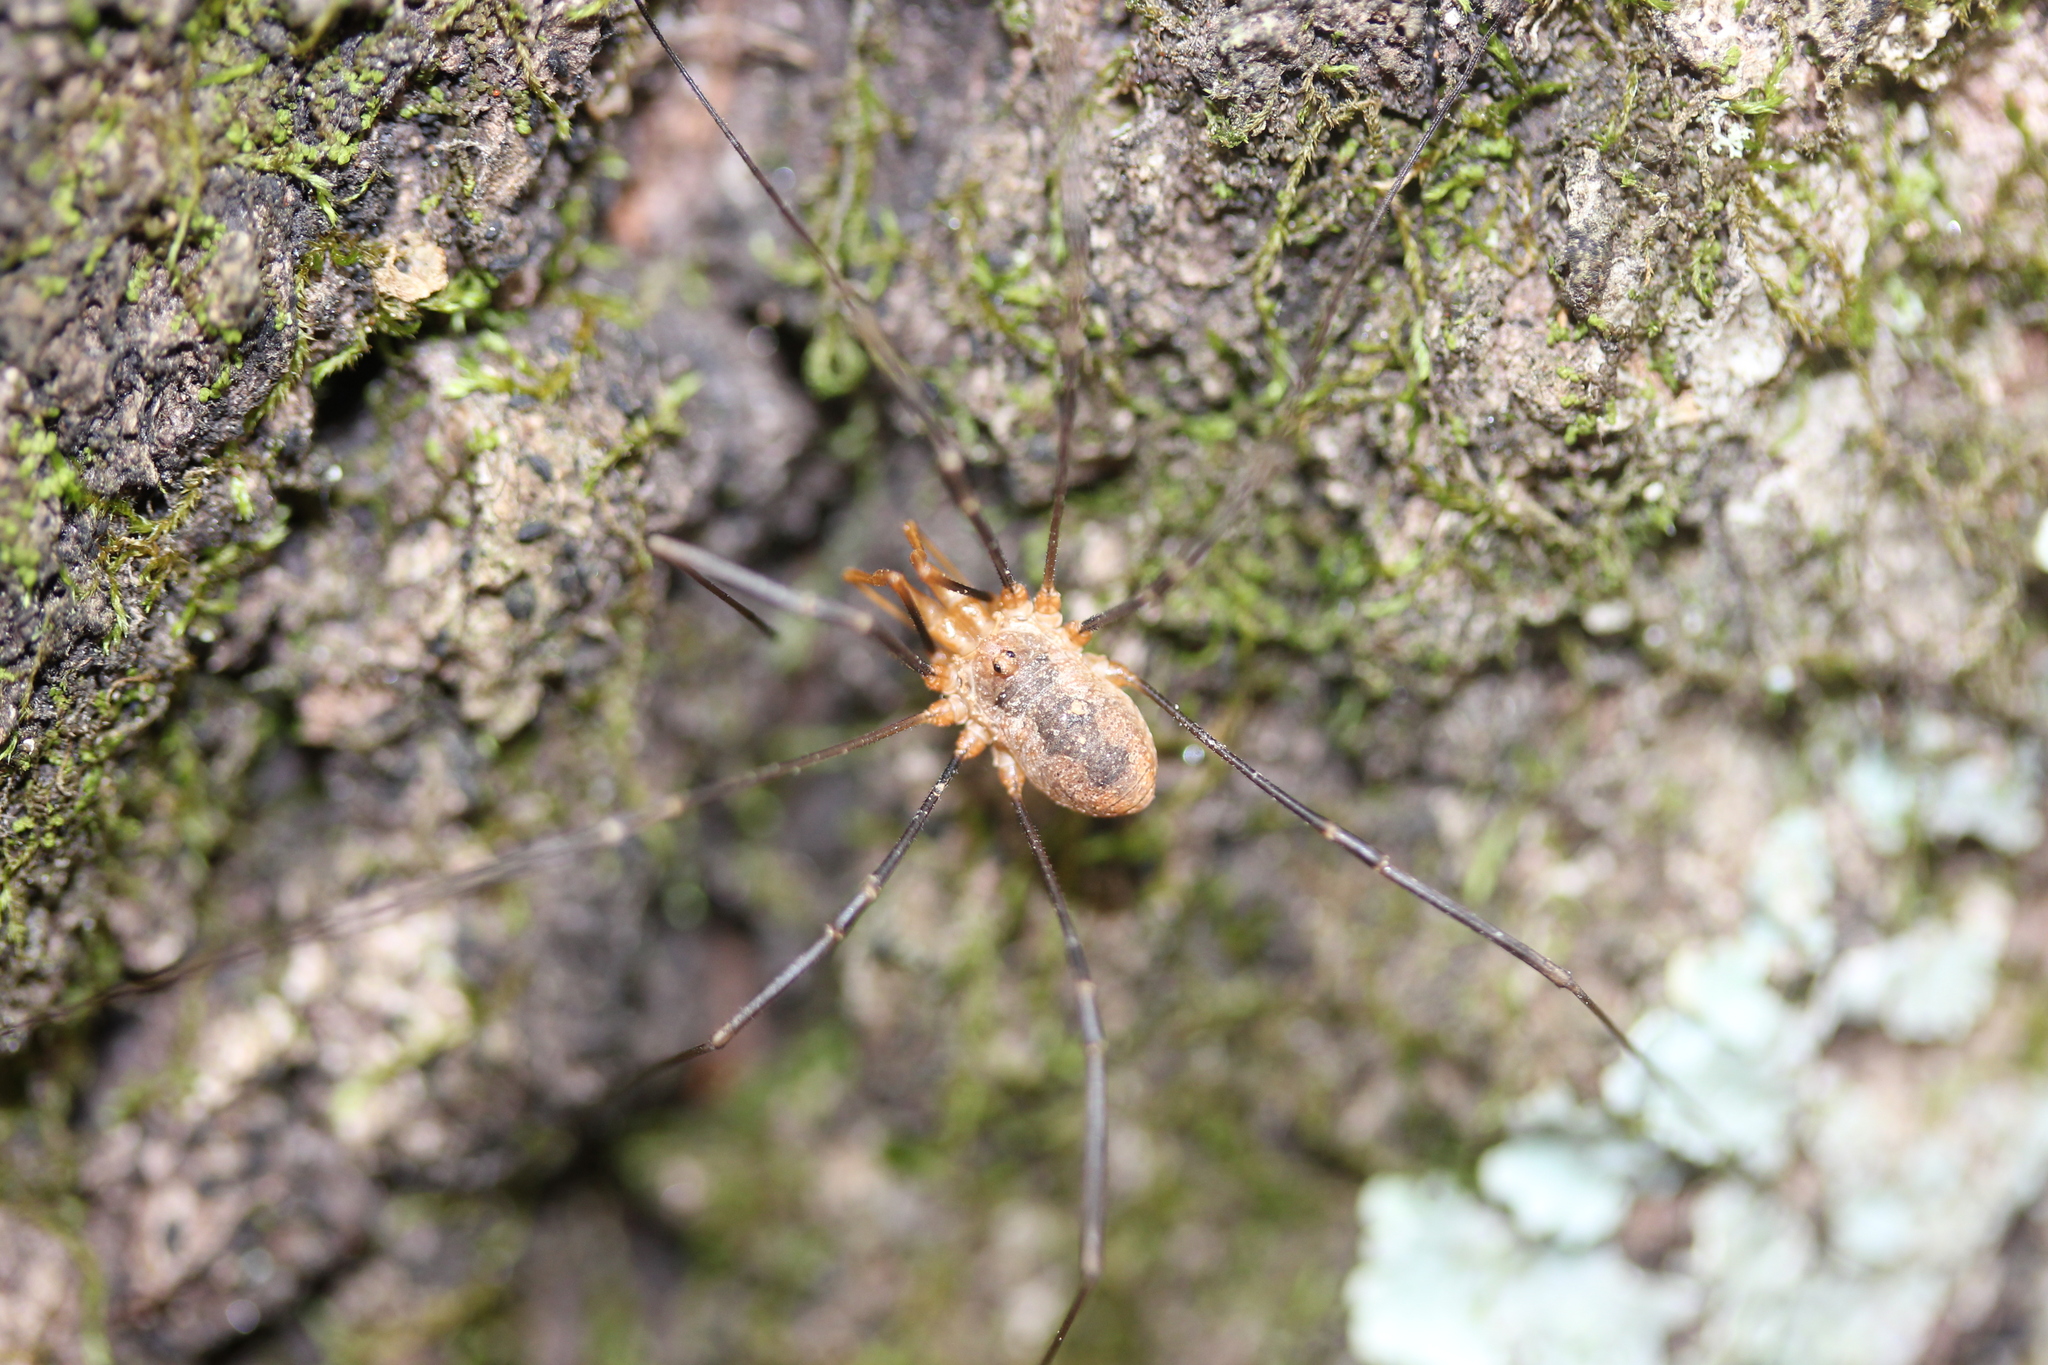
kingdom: Animalia
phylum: Arthropoda
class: Arachnida
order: Opiliones
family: Phalangiidae
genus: Phalangium
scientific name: Phalangium opilio
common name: Daddy longleg
